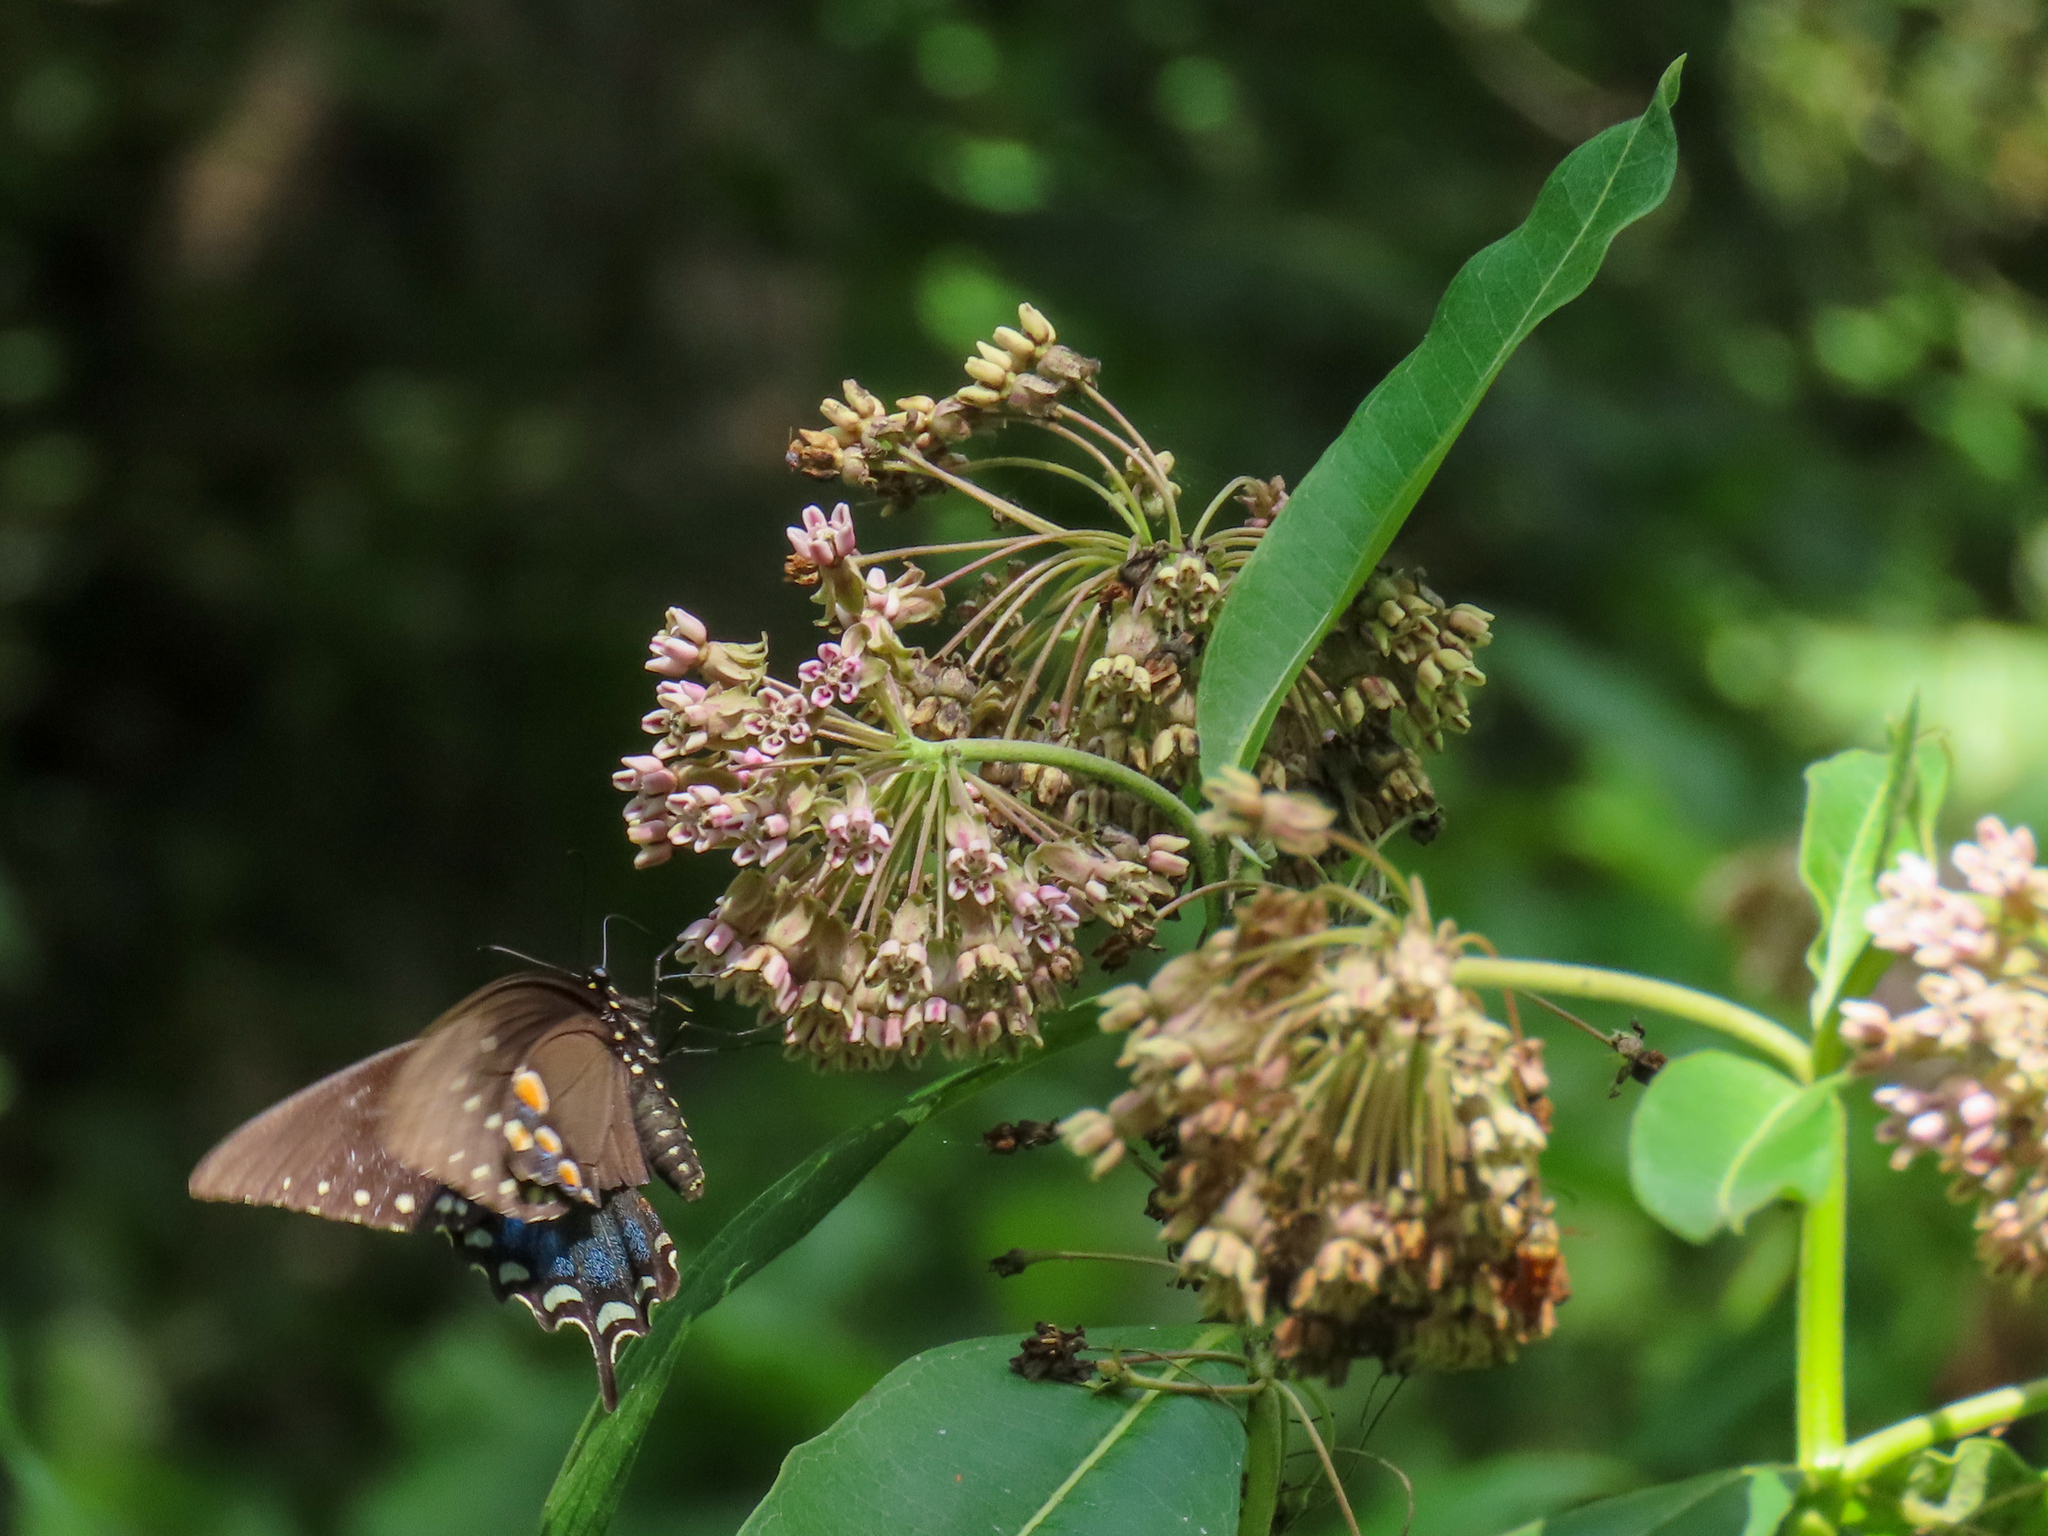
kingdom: Animalia
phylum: Arthropoda
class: Insecta
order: Lepidoptera
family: Papilionidae
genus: Papilio
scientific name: Papilio troilus
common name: Spicebush swallowtail
